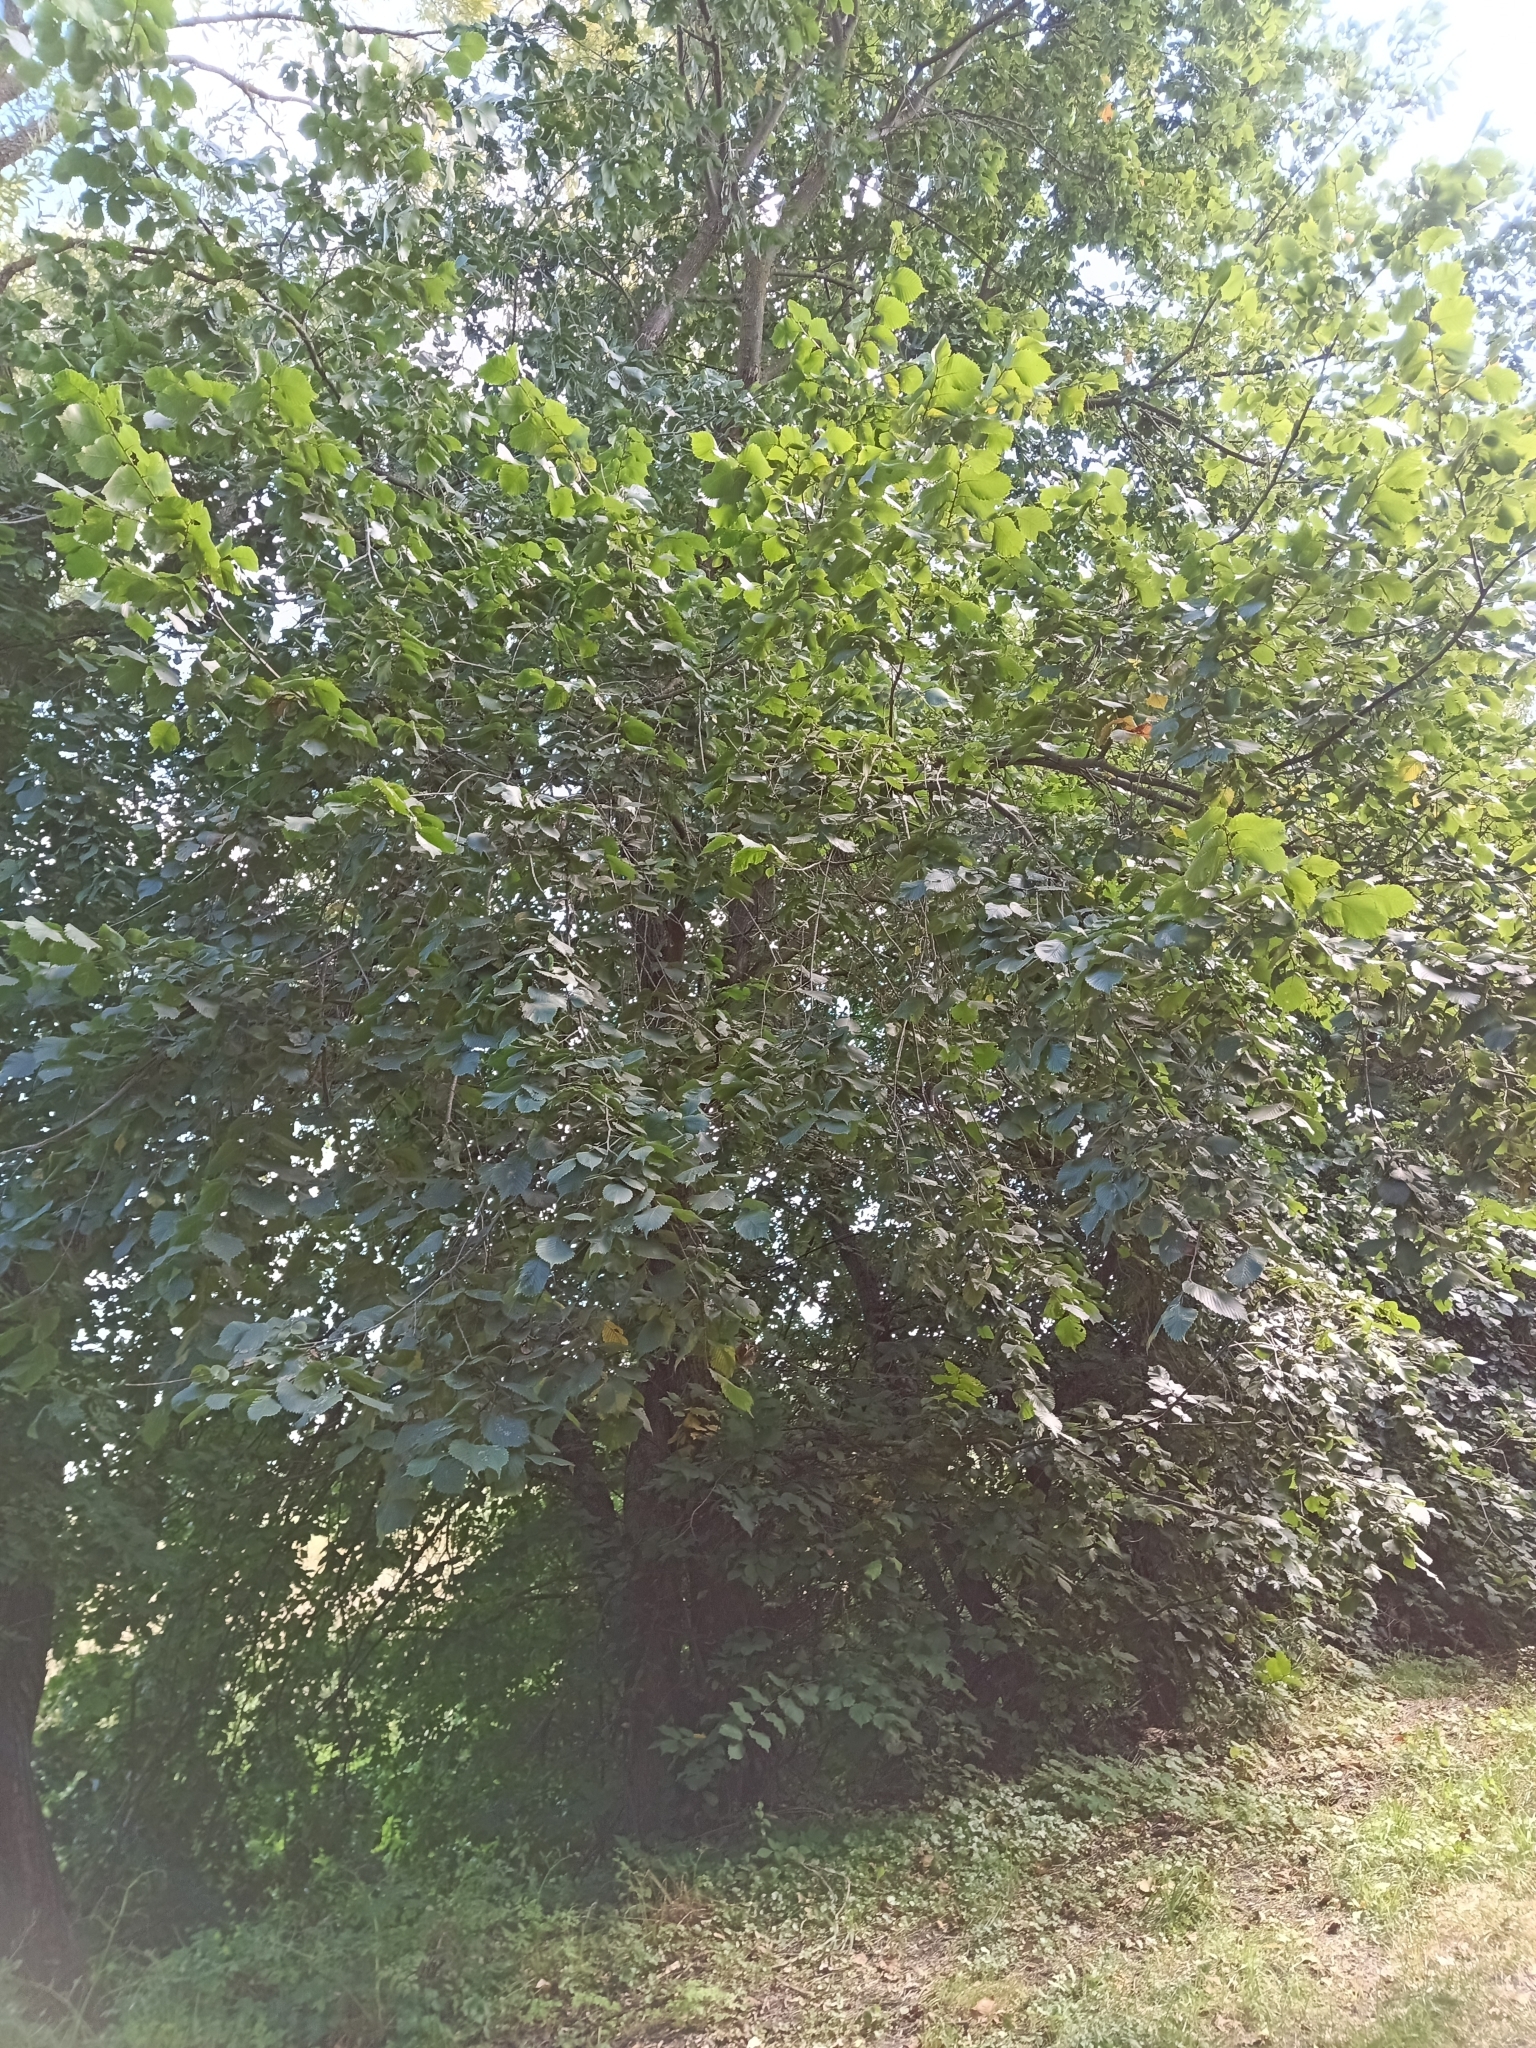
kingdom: Plantae
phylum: Tracheophyta
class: Magnoliopsida
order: Rosales
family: Ulmaceae
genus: Ulmus
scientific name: Ulmus laevis
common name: European white-elm
